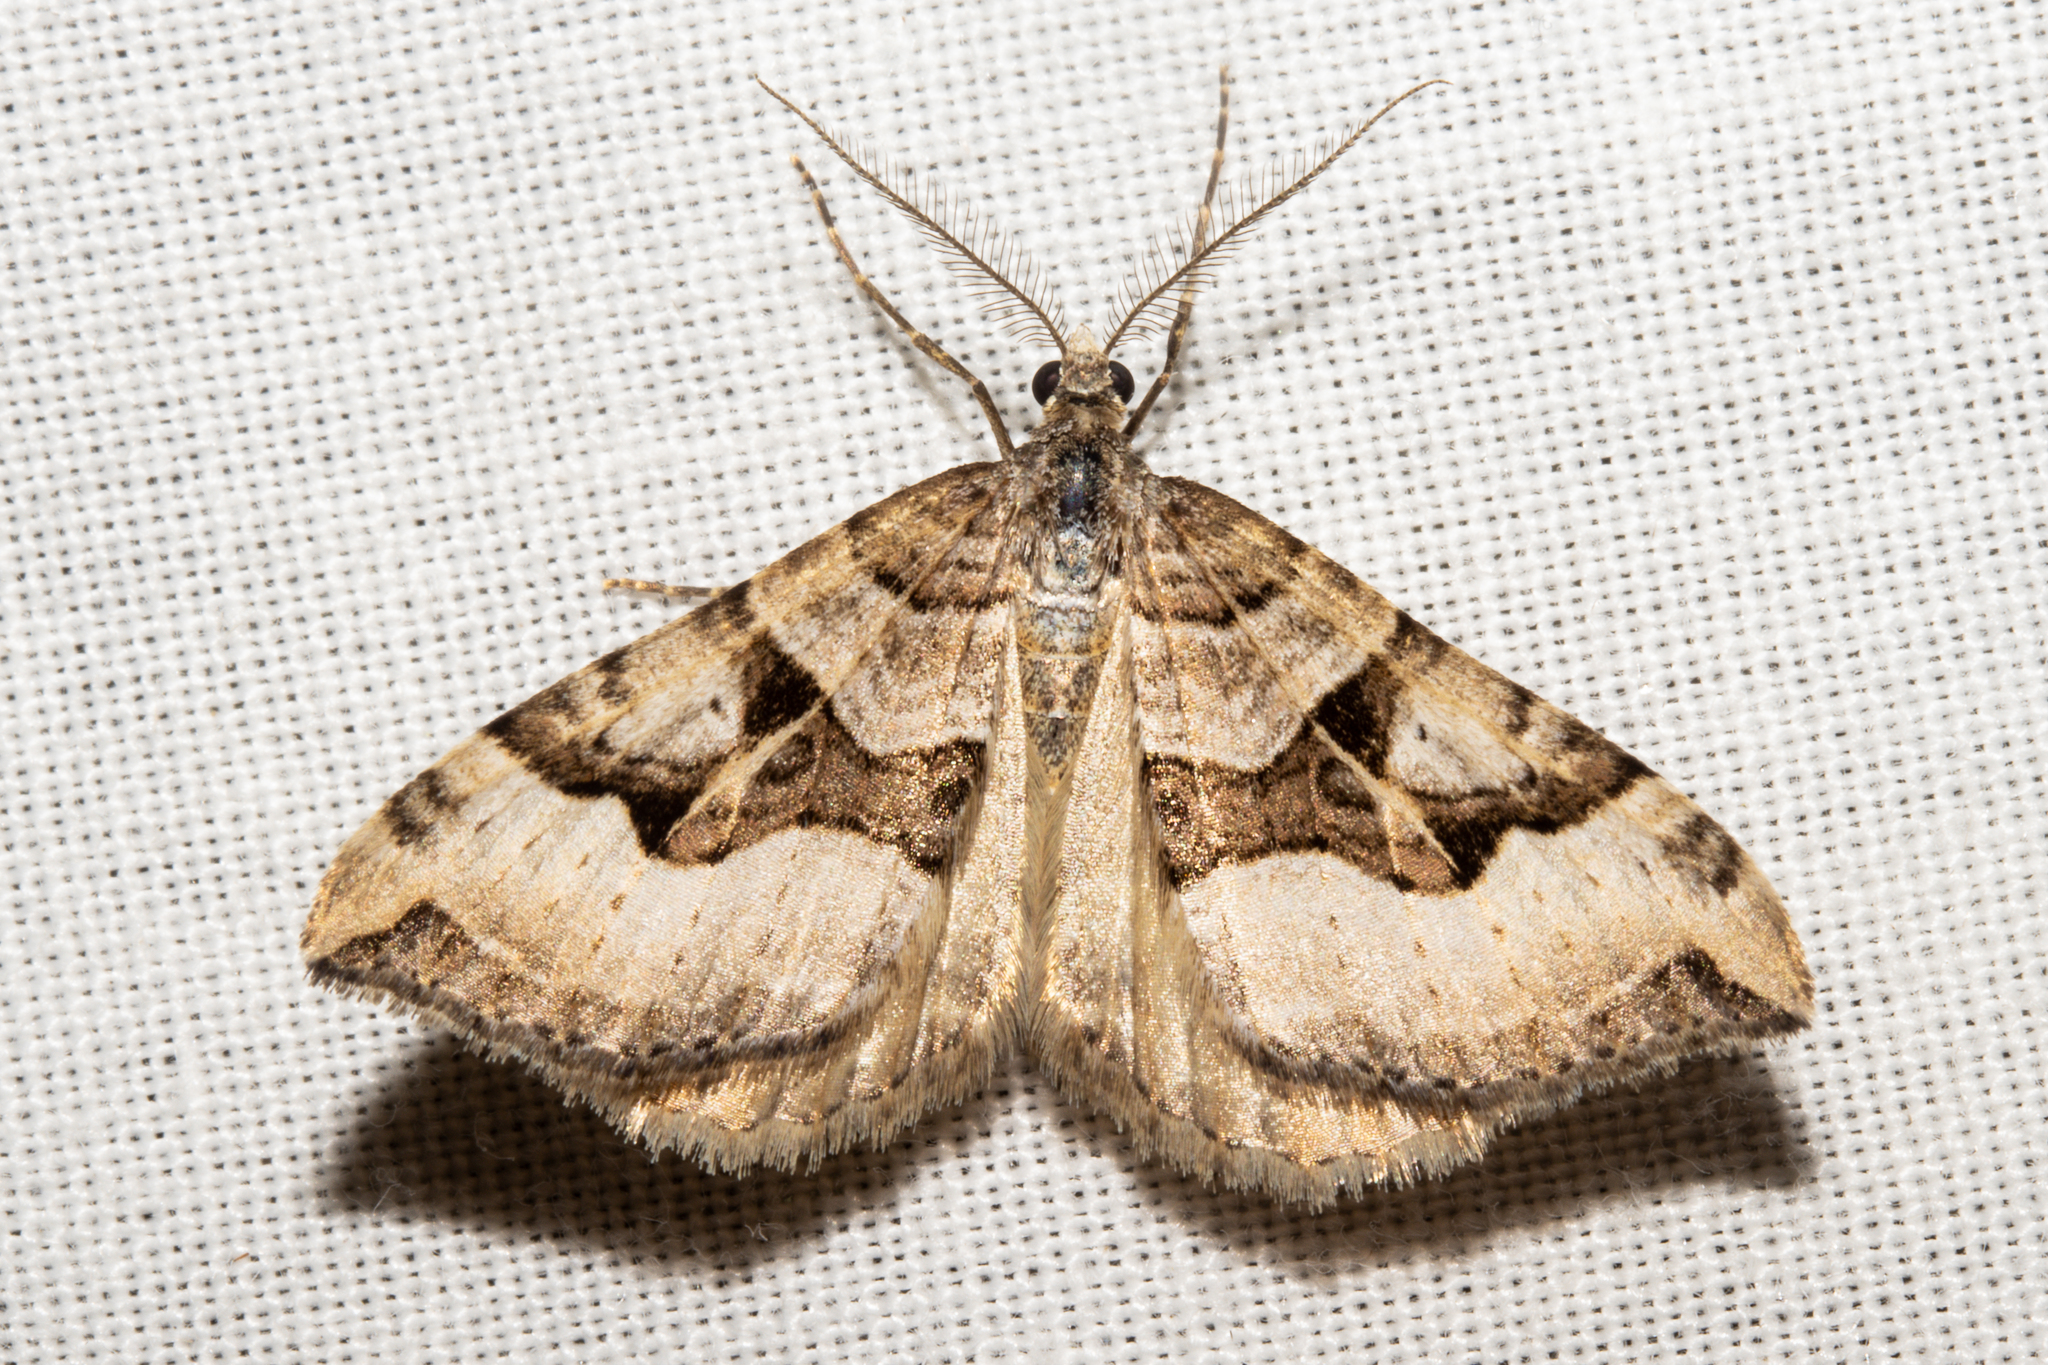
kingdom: Animalia
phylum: Arthropoda
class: Insecta
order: Lepidoptera
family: Geometridae
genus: Xanthorhoe
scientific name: Xanthorhoe semifissata
